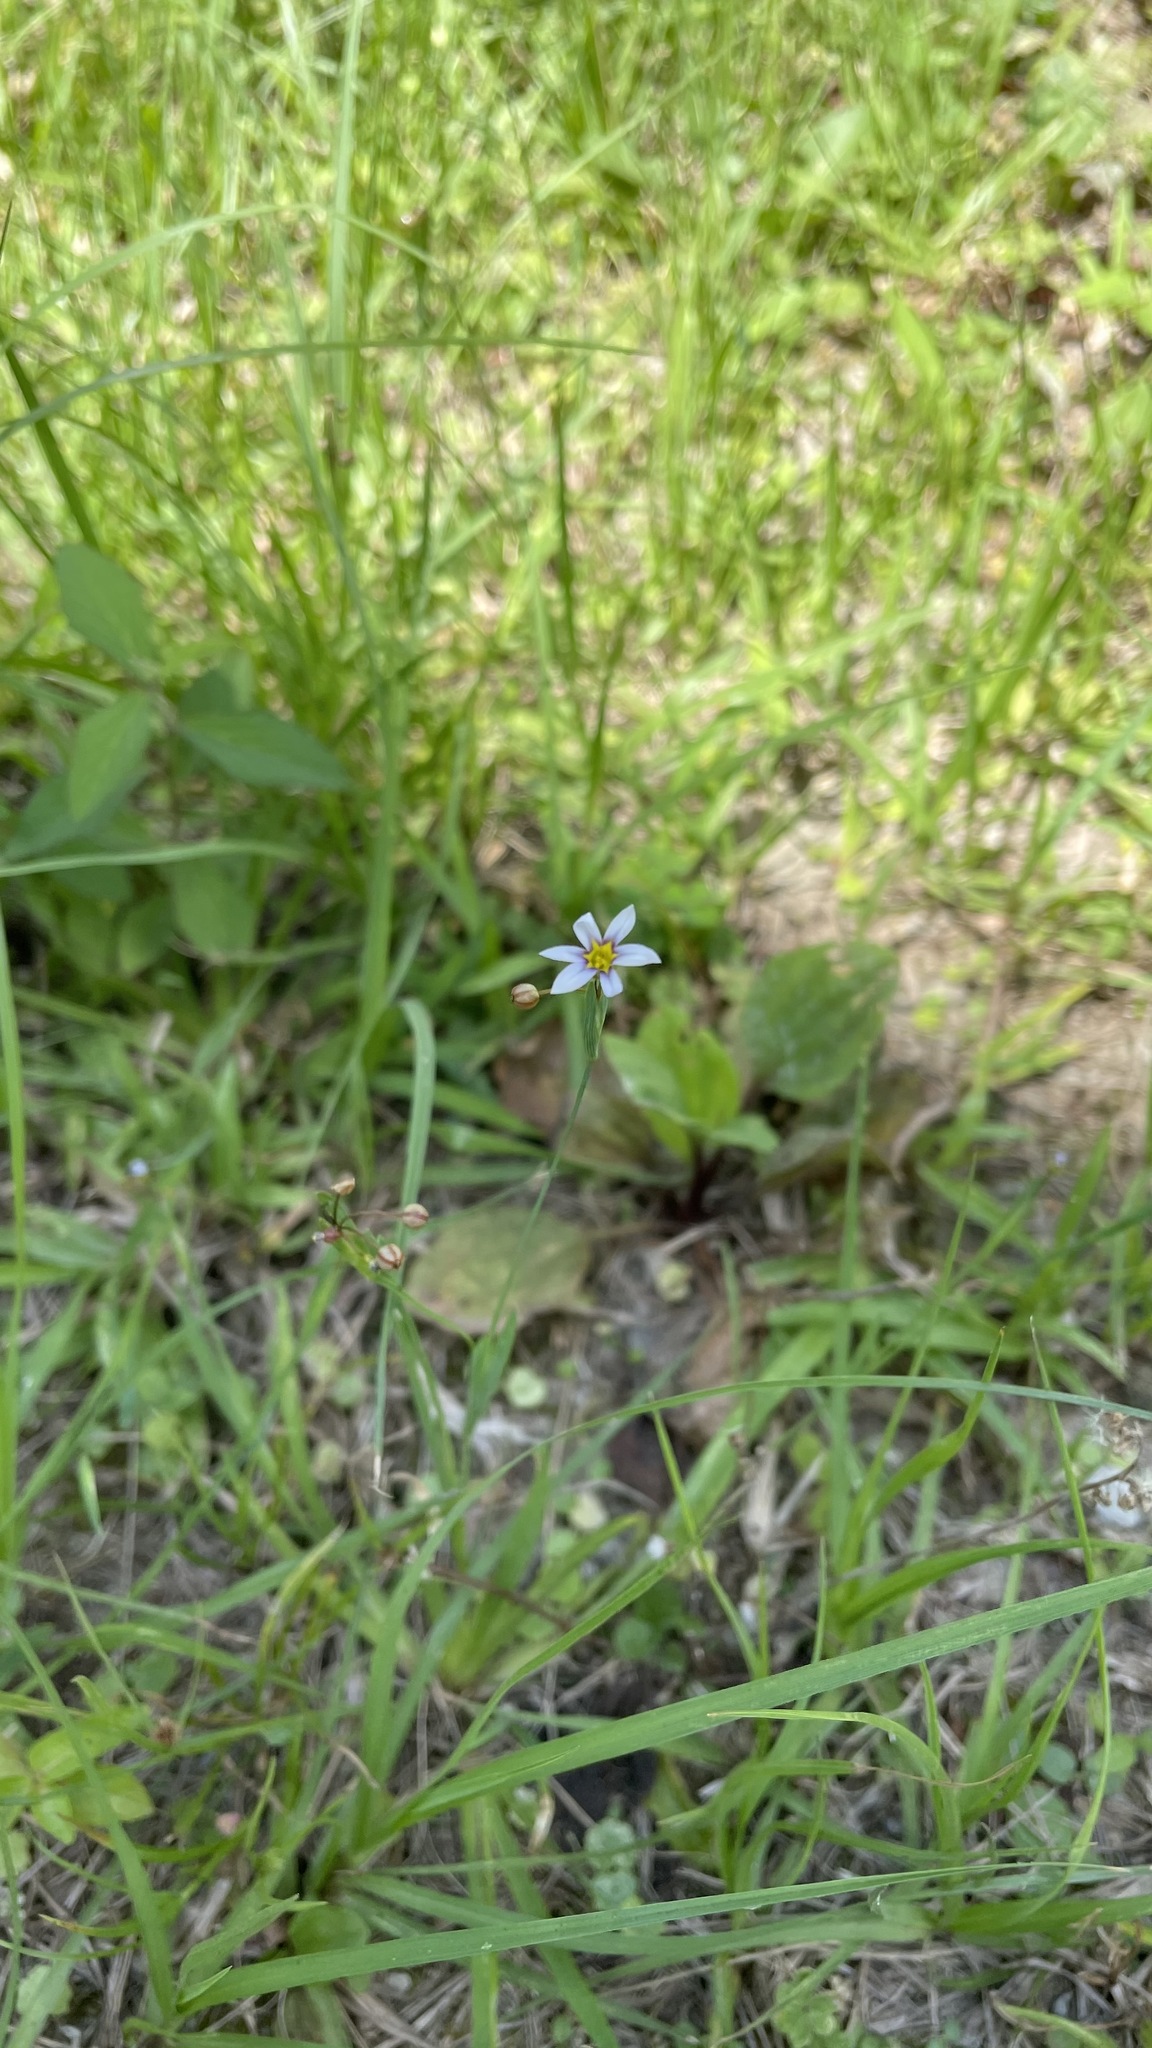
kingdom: Plantae
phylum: Tracheophyta
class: Liliopsida
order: Asparagales
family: Iridaceae
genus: Sisyrinchium
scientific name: Sisyrinchium micranthum
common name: Bermuda pigroot
